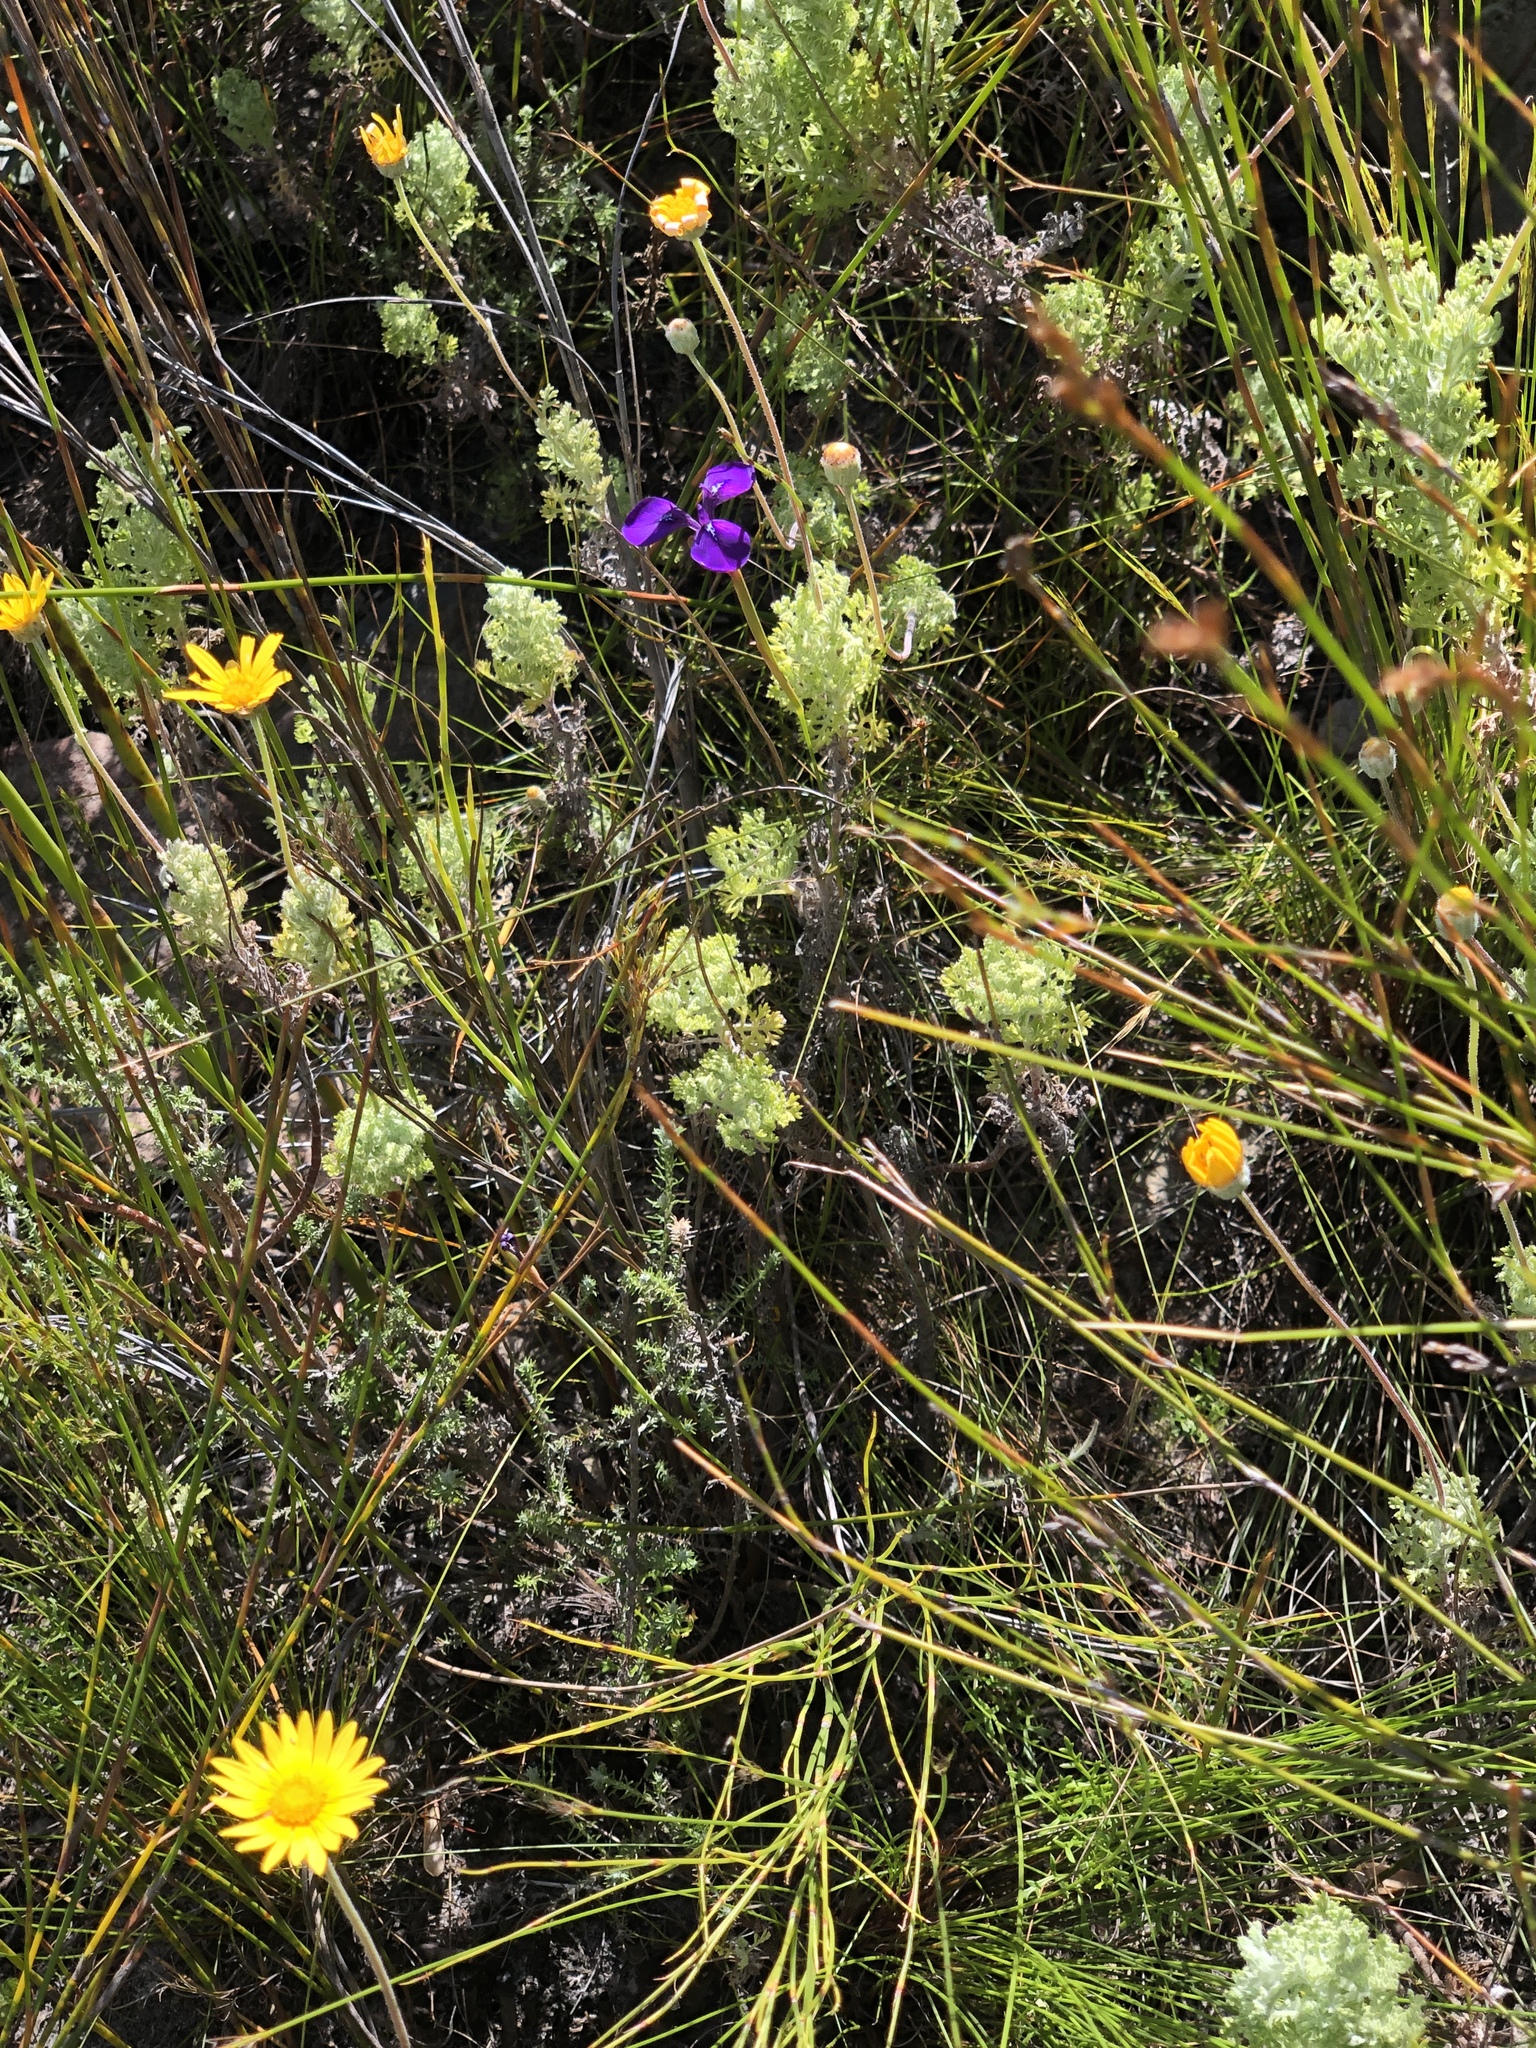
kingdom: Plantae
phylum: Tracheophyta
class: Liliopsida
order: Asparagales
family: Iridaceae
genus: Moraea
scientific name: Moraea tripetala
